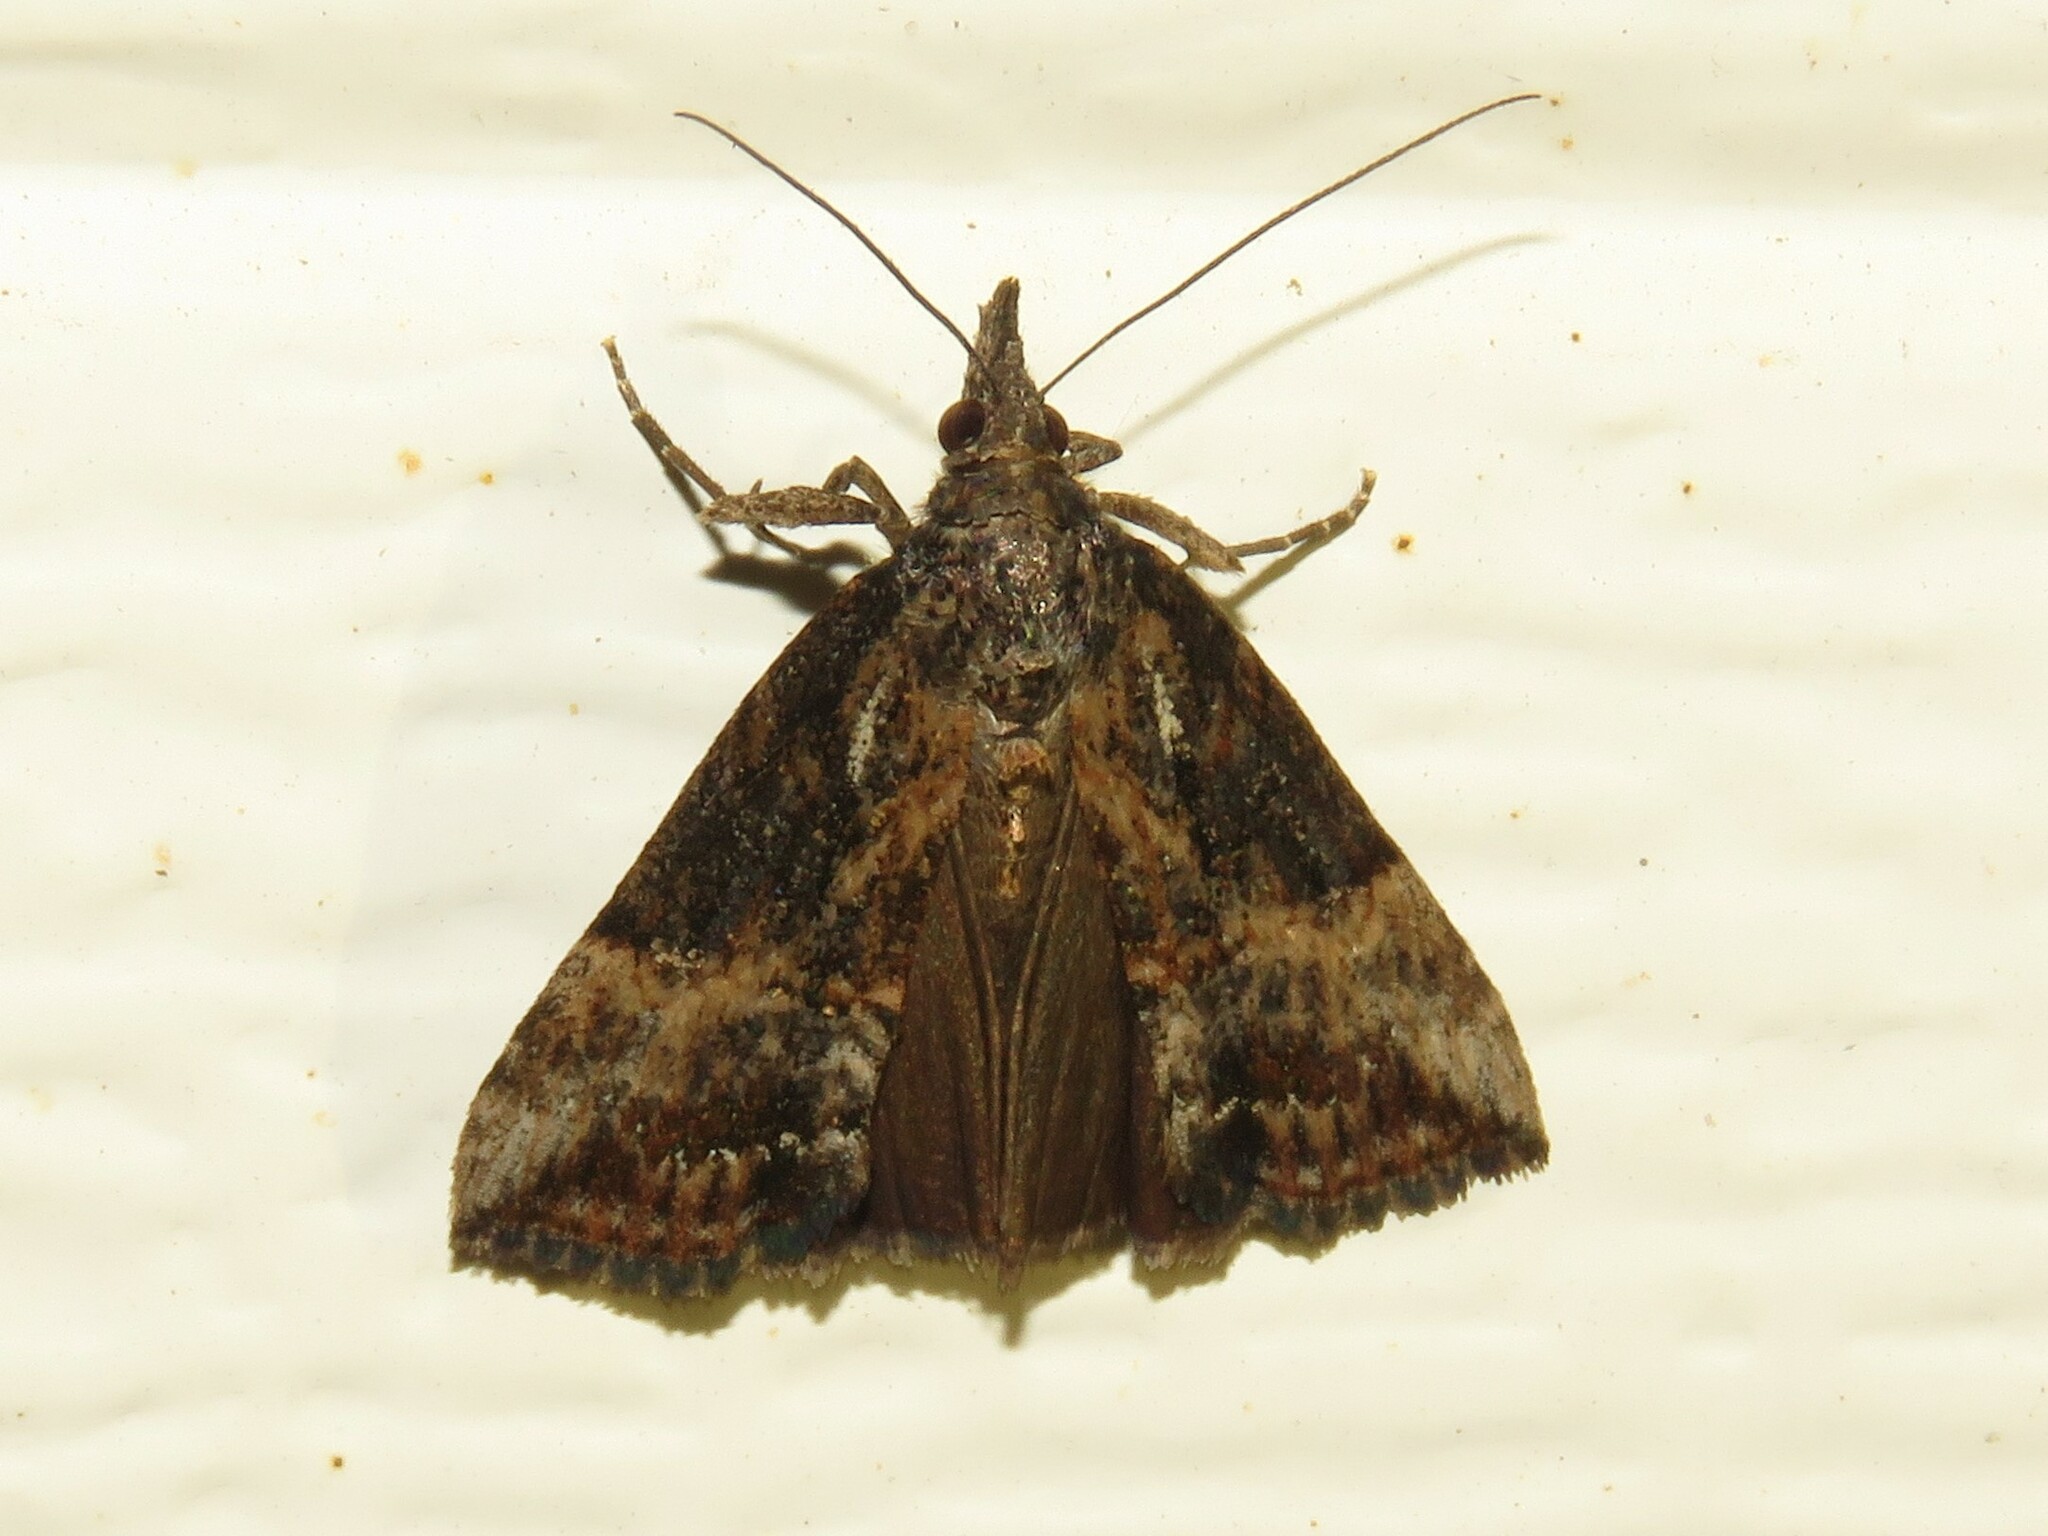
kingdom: Animalia
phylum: Arthropoda
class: Insecta
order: Lepidoptera
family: Erebidae
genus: Hypena
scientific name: Hypena scabra
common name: Green cloverworm
